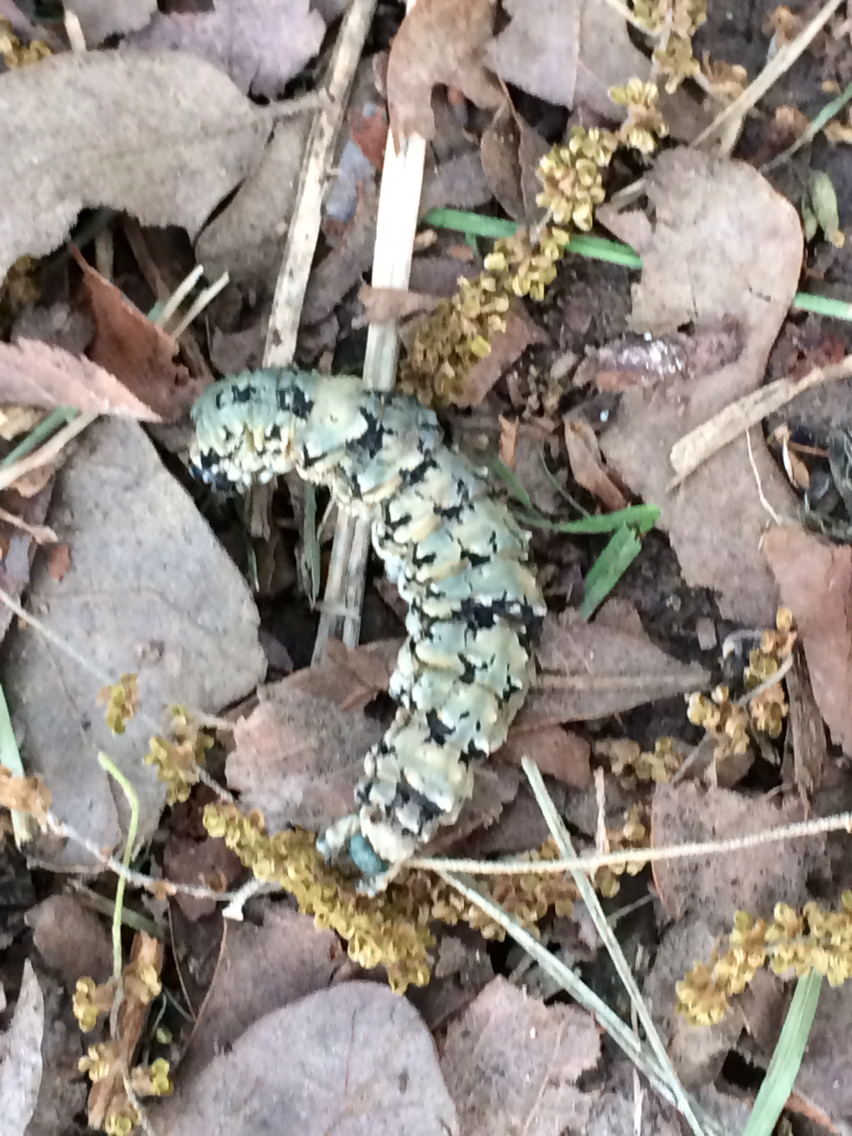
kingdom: Animalia
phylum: Arthropoda
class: Insecta
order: Lepidoptera
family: Erebidae
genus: Catocala
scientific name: Catocala ilia
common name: Ilia underwing
